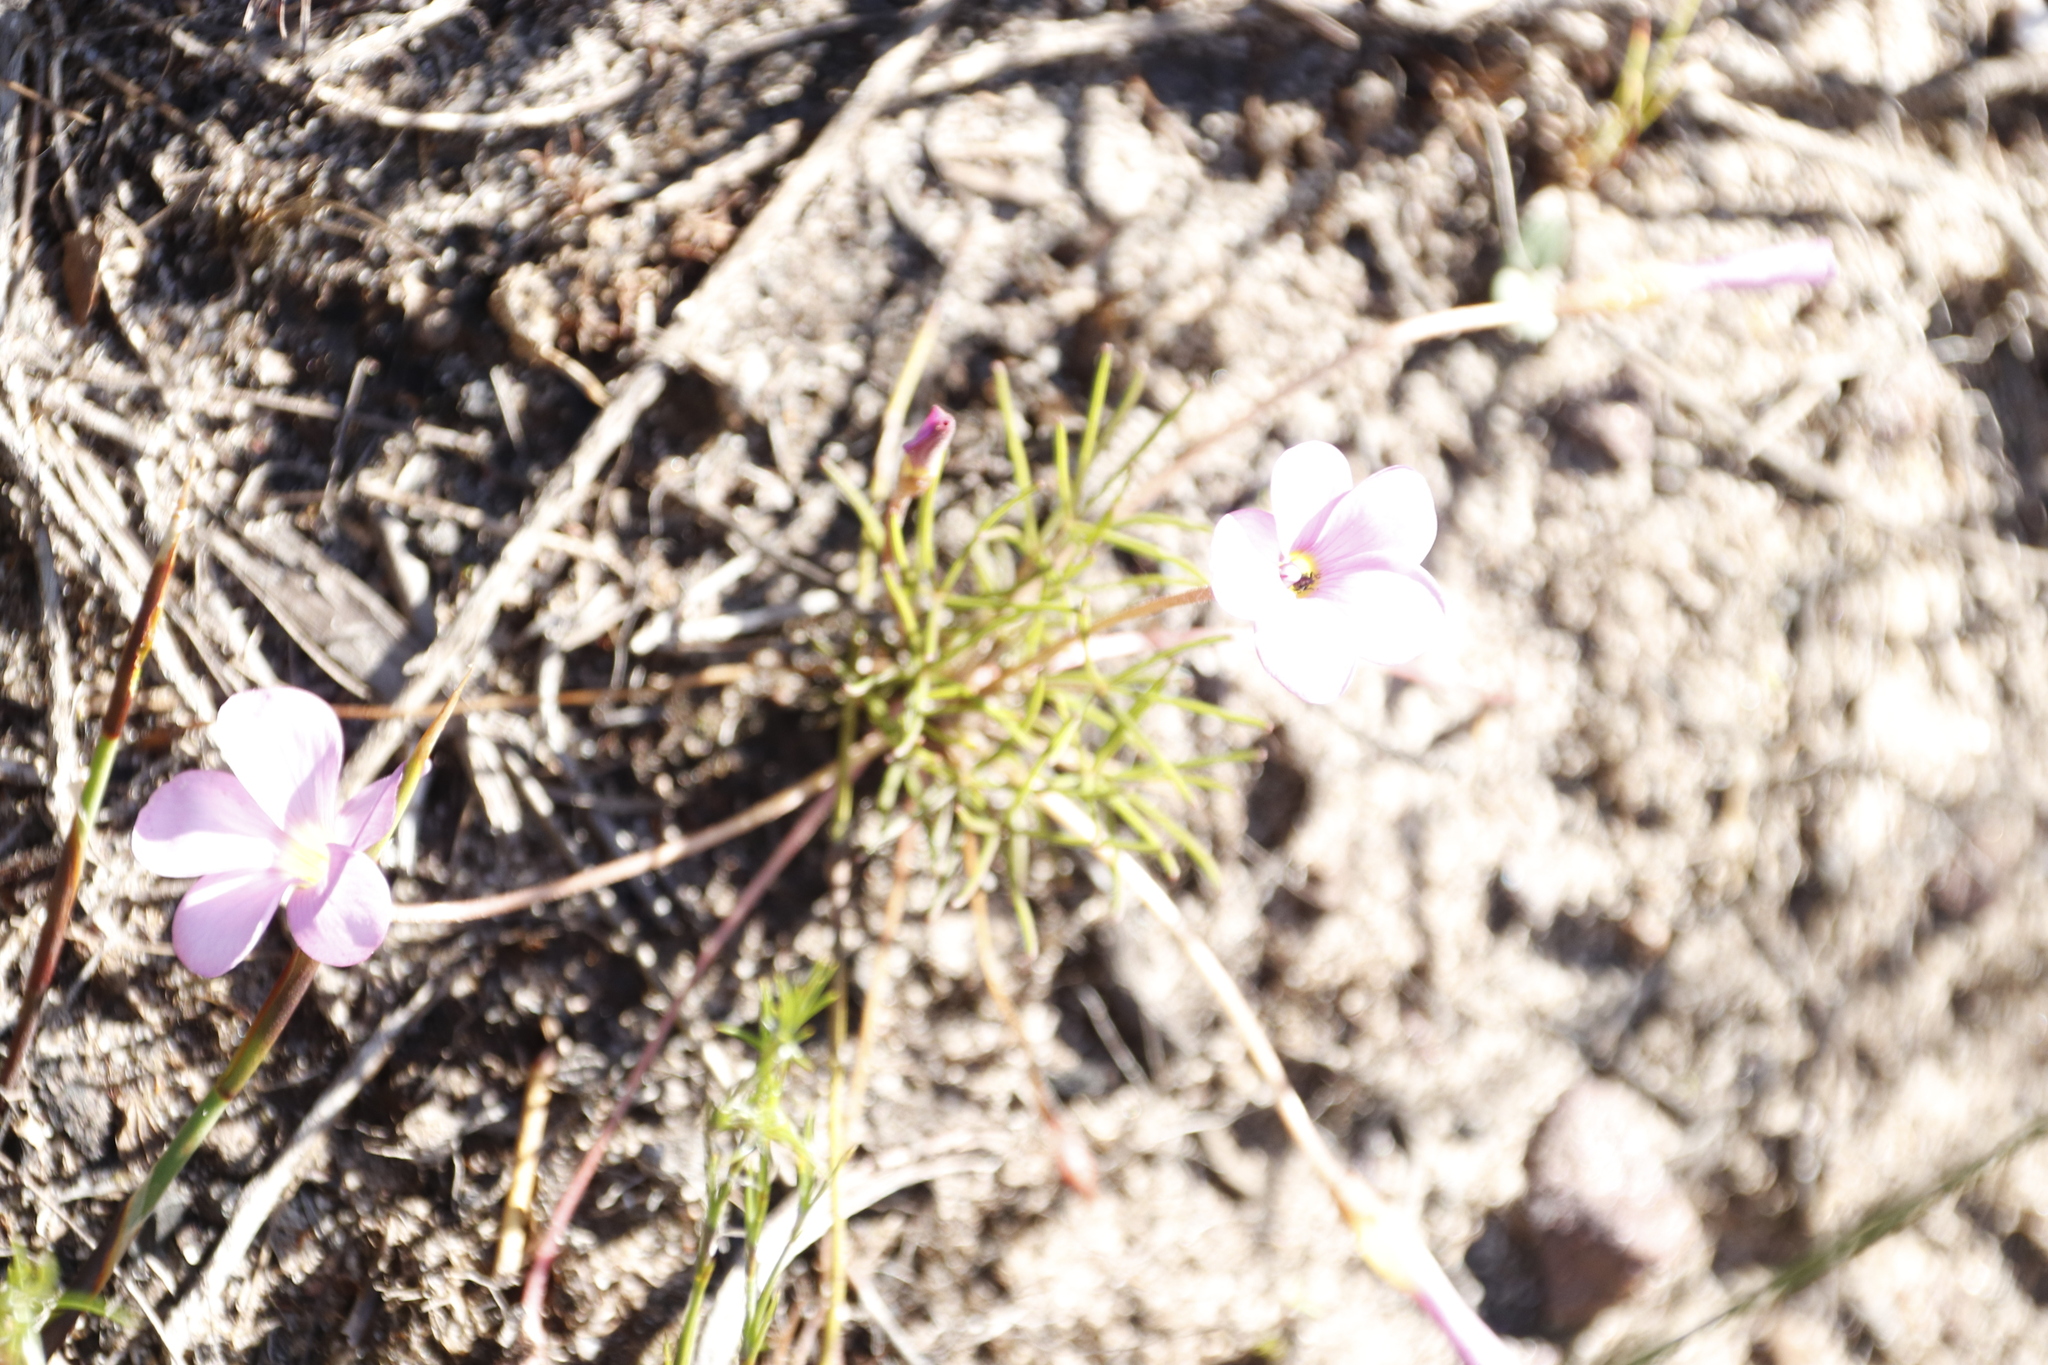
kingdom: Plantae
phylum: Tracheophyta
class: Magnoliopsida
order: Oxalidales
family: Oxalidaceae
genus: Oxalis
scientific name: Oxalis polyphylla
